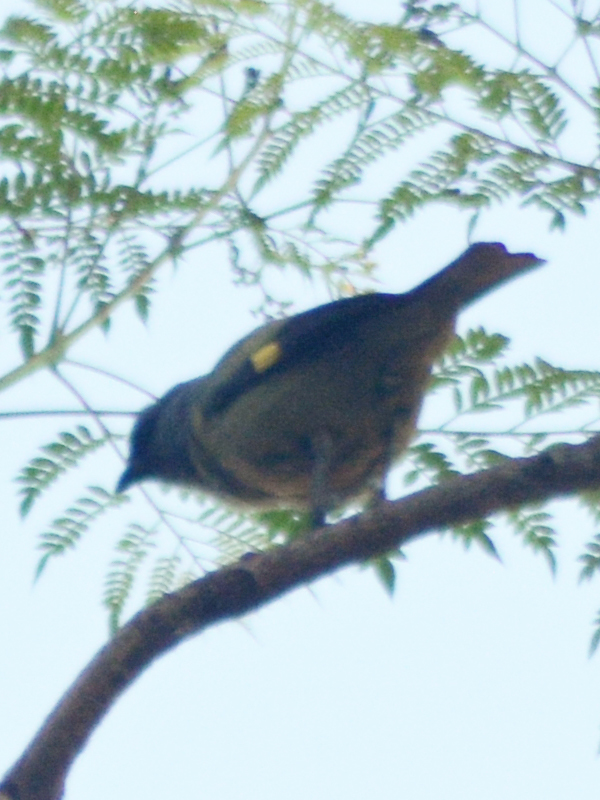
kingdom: Animalia
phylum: Chordata
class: Aves
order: Passeriformes
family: Thraupidae
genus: Thraupis
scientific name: Thraupis abbas
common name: Yellow-winged tanager
